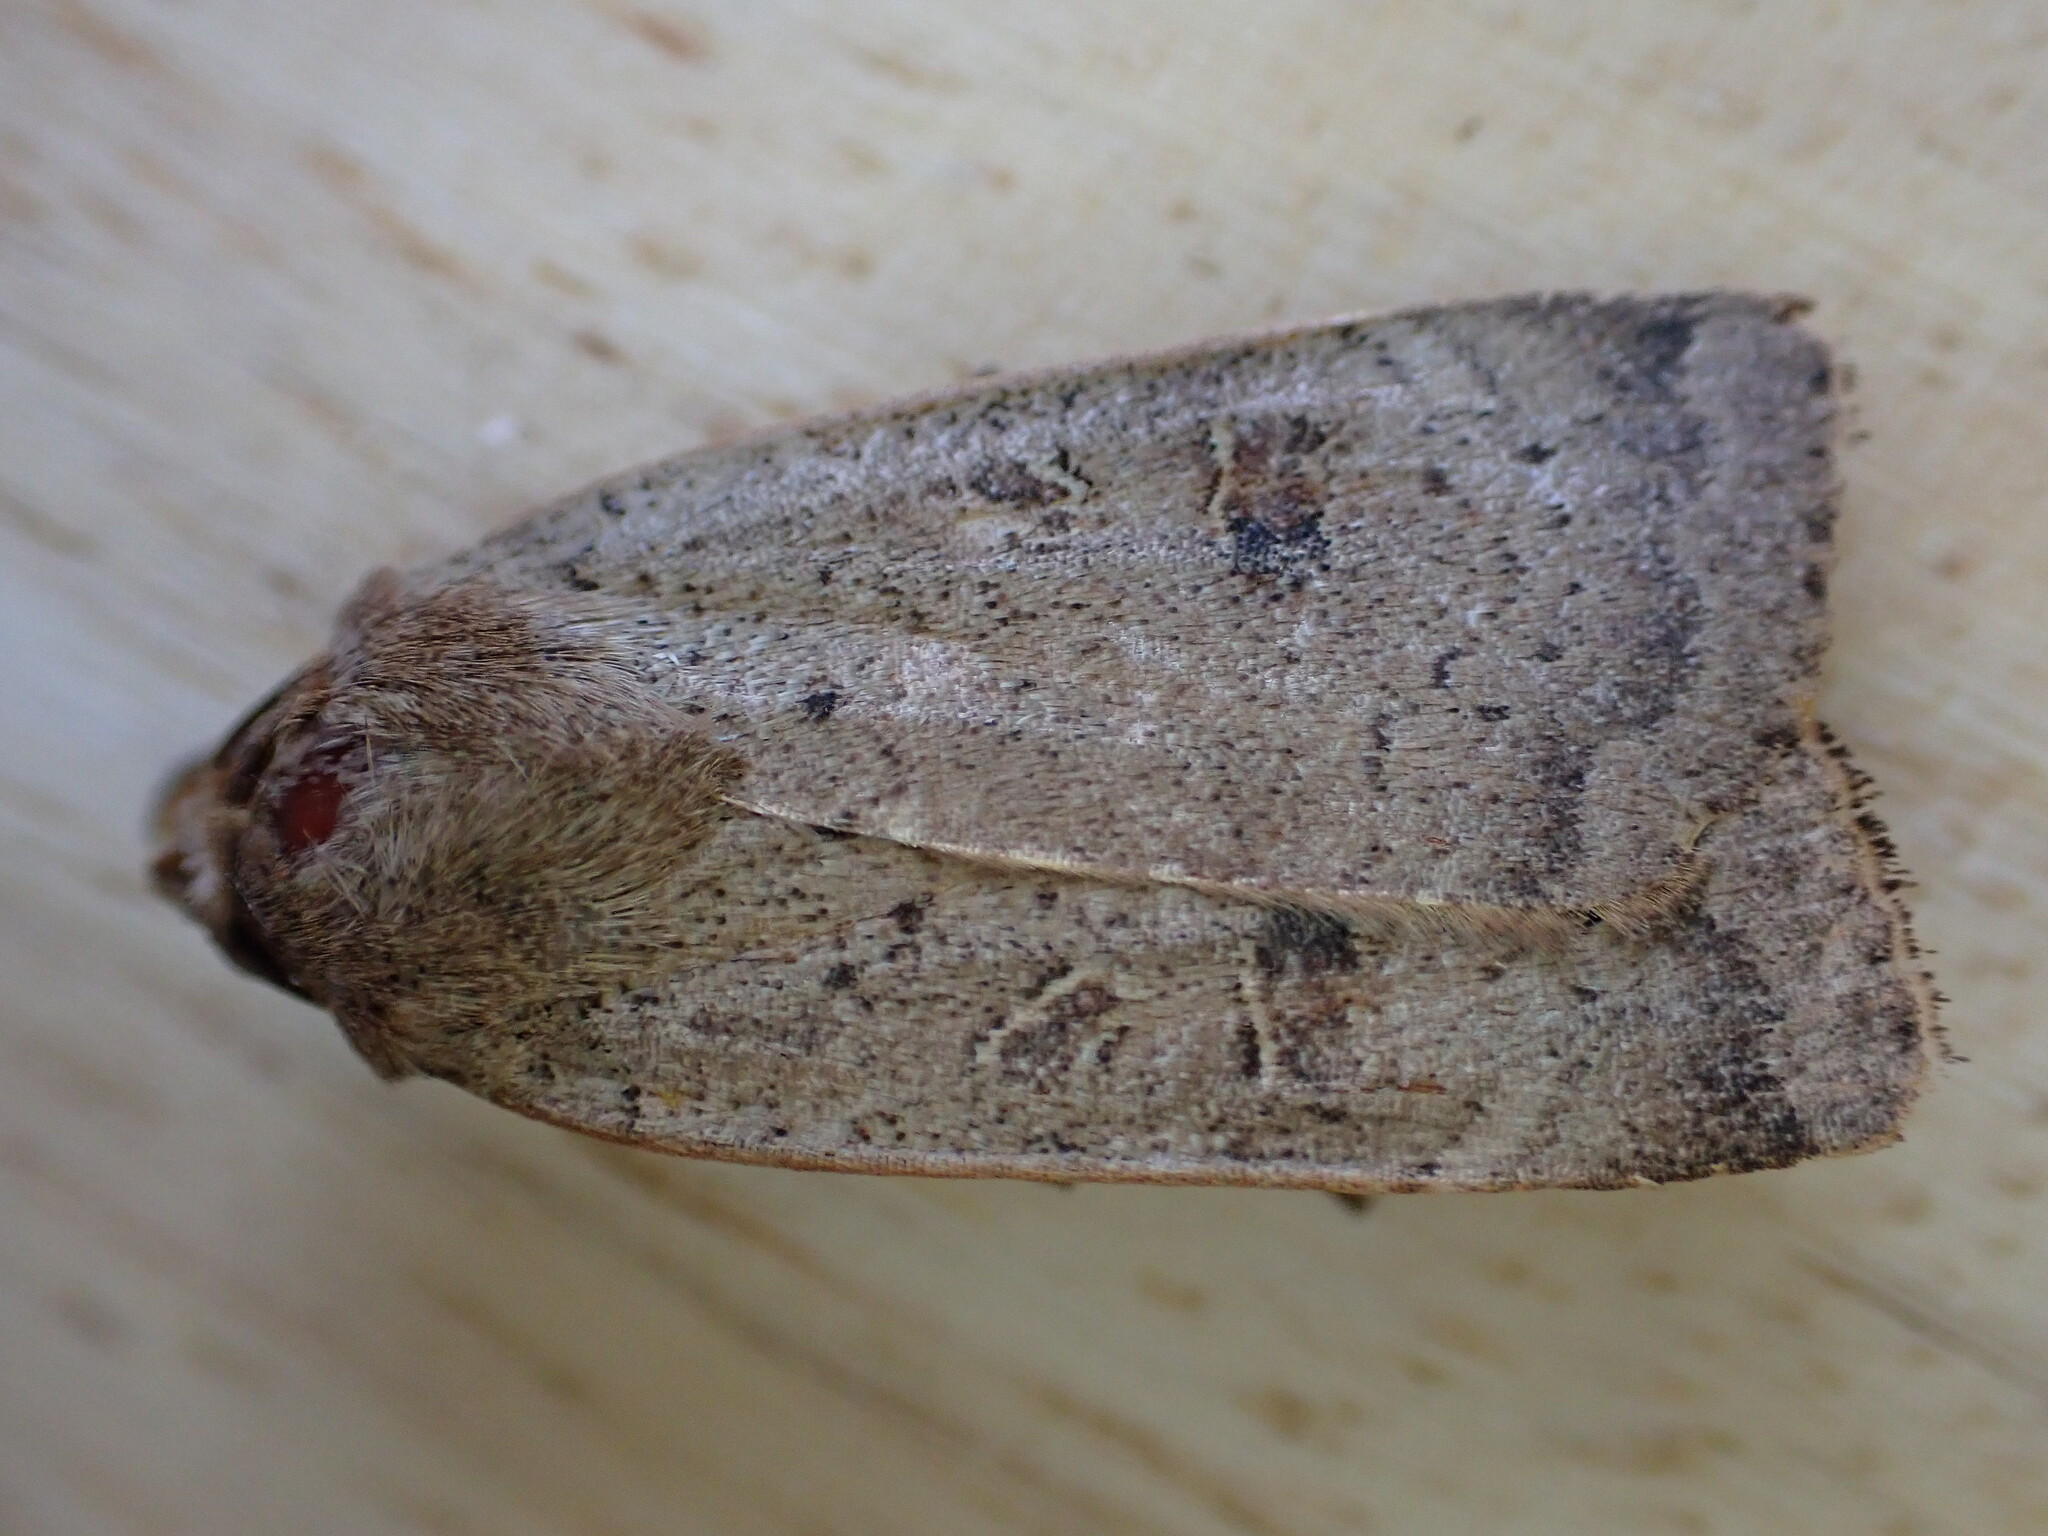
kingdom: Animalia
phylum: Arthropoda
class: Insecta
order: Lepidoptera
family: Noctuidae
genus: Noctua
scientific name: Noctua comes
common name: Lesser yellow underwing
